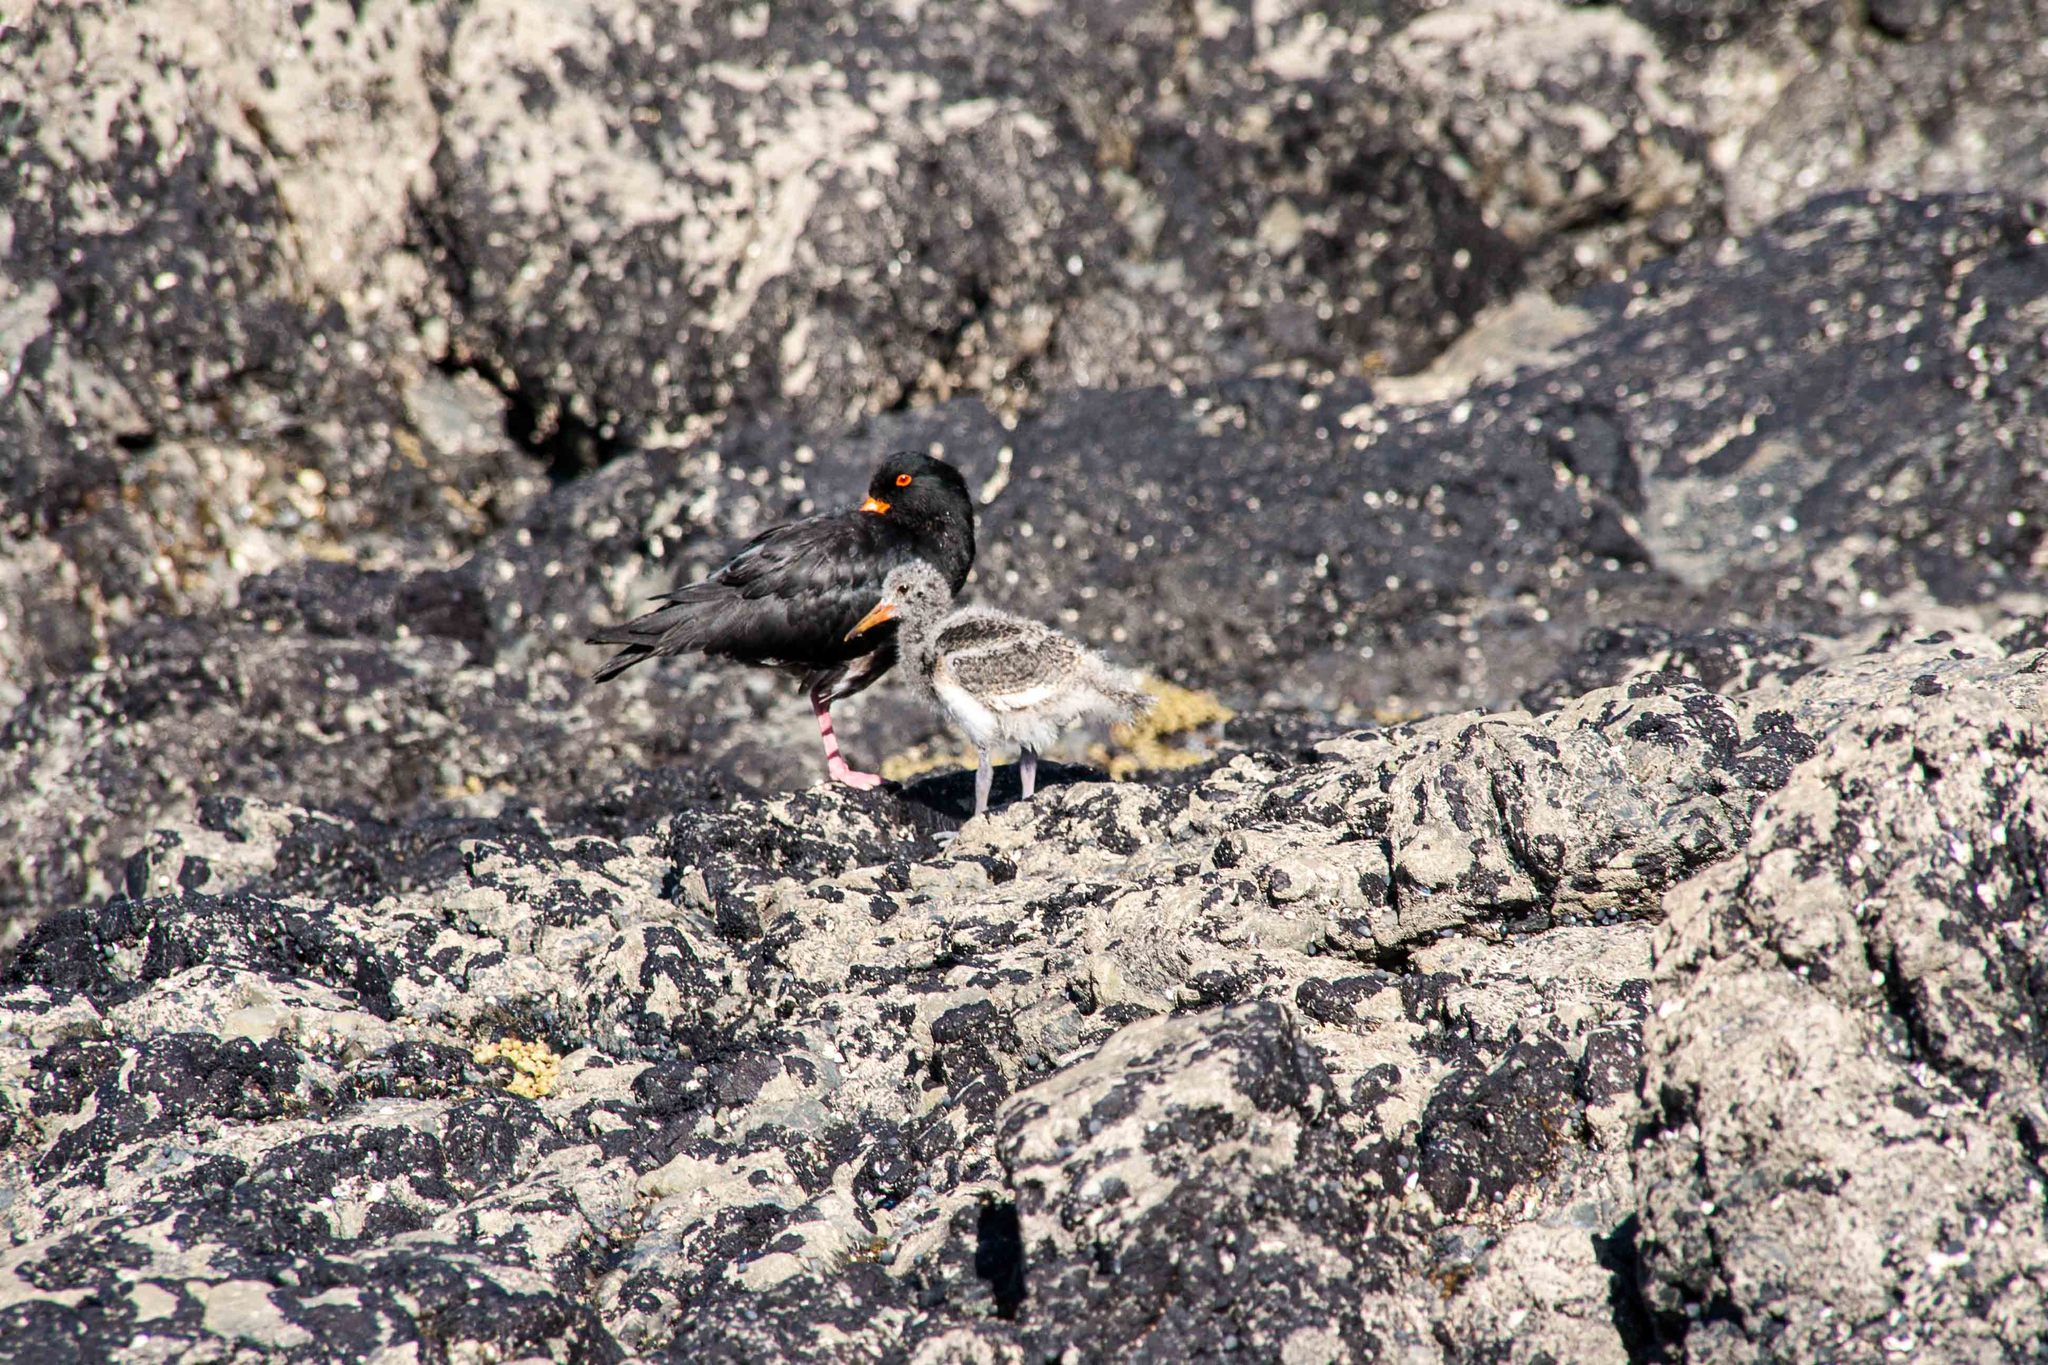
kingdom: Animalia
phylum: Chordata
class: Aves
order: Charadriiformes
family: Haematopodidae
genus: Haematopus
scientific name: Haematopus unicolor
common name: Variable oystercatcher
